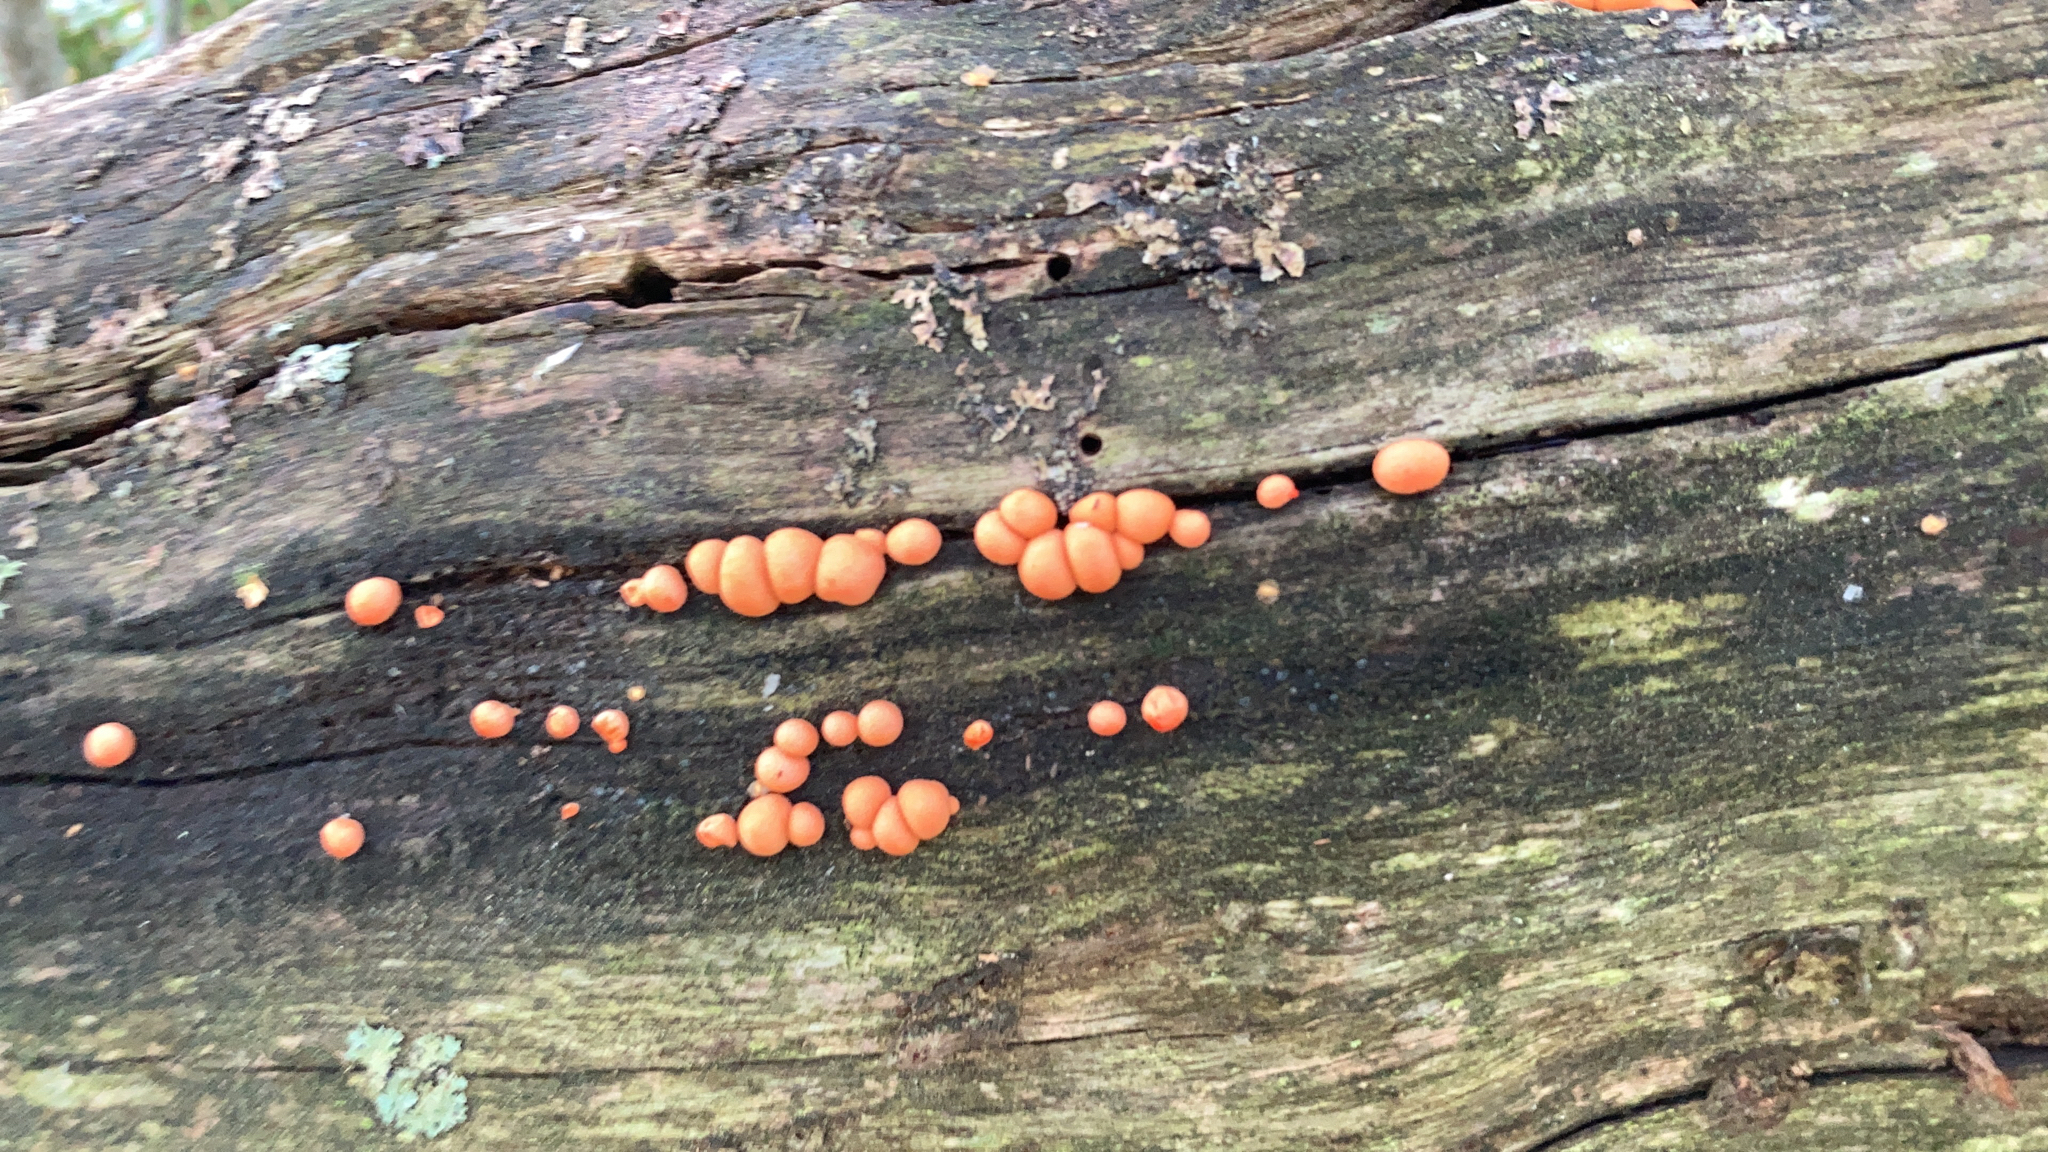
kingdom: Protozoa
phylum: Mycetozoa
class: Myxomycetes
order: Cribrariales
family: Tubiferaceae
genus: Lycogala
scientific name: Lycogala epidendrum
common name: Wolf's milk
